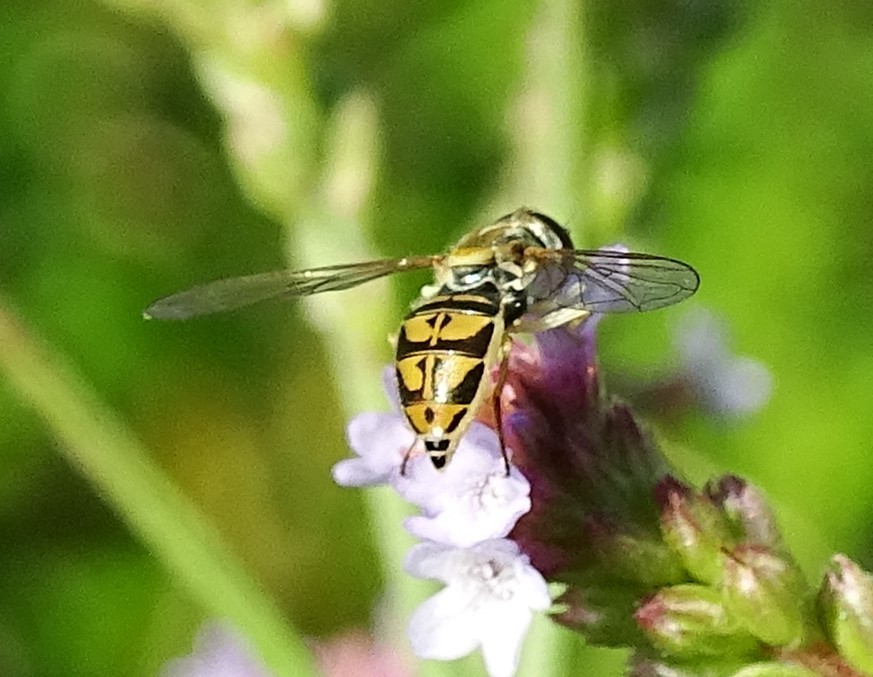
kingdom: Animalia
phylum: Arthropoda
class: Insecta
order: Diptera
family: Syrphidae
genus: Toxomerus
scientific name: Toxomerus marginatus
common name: Syrphid fly
